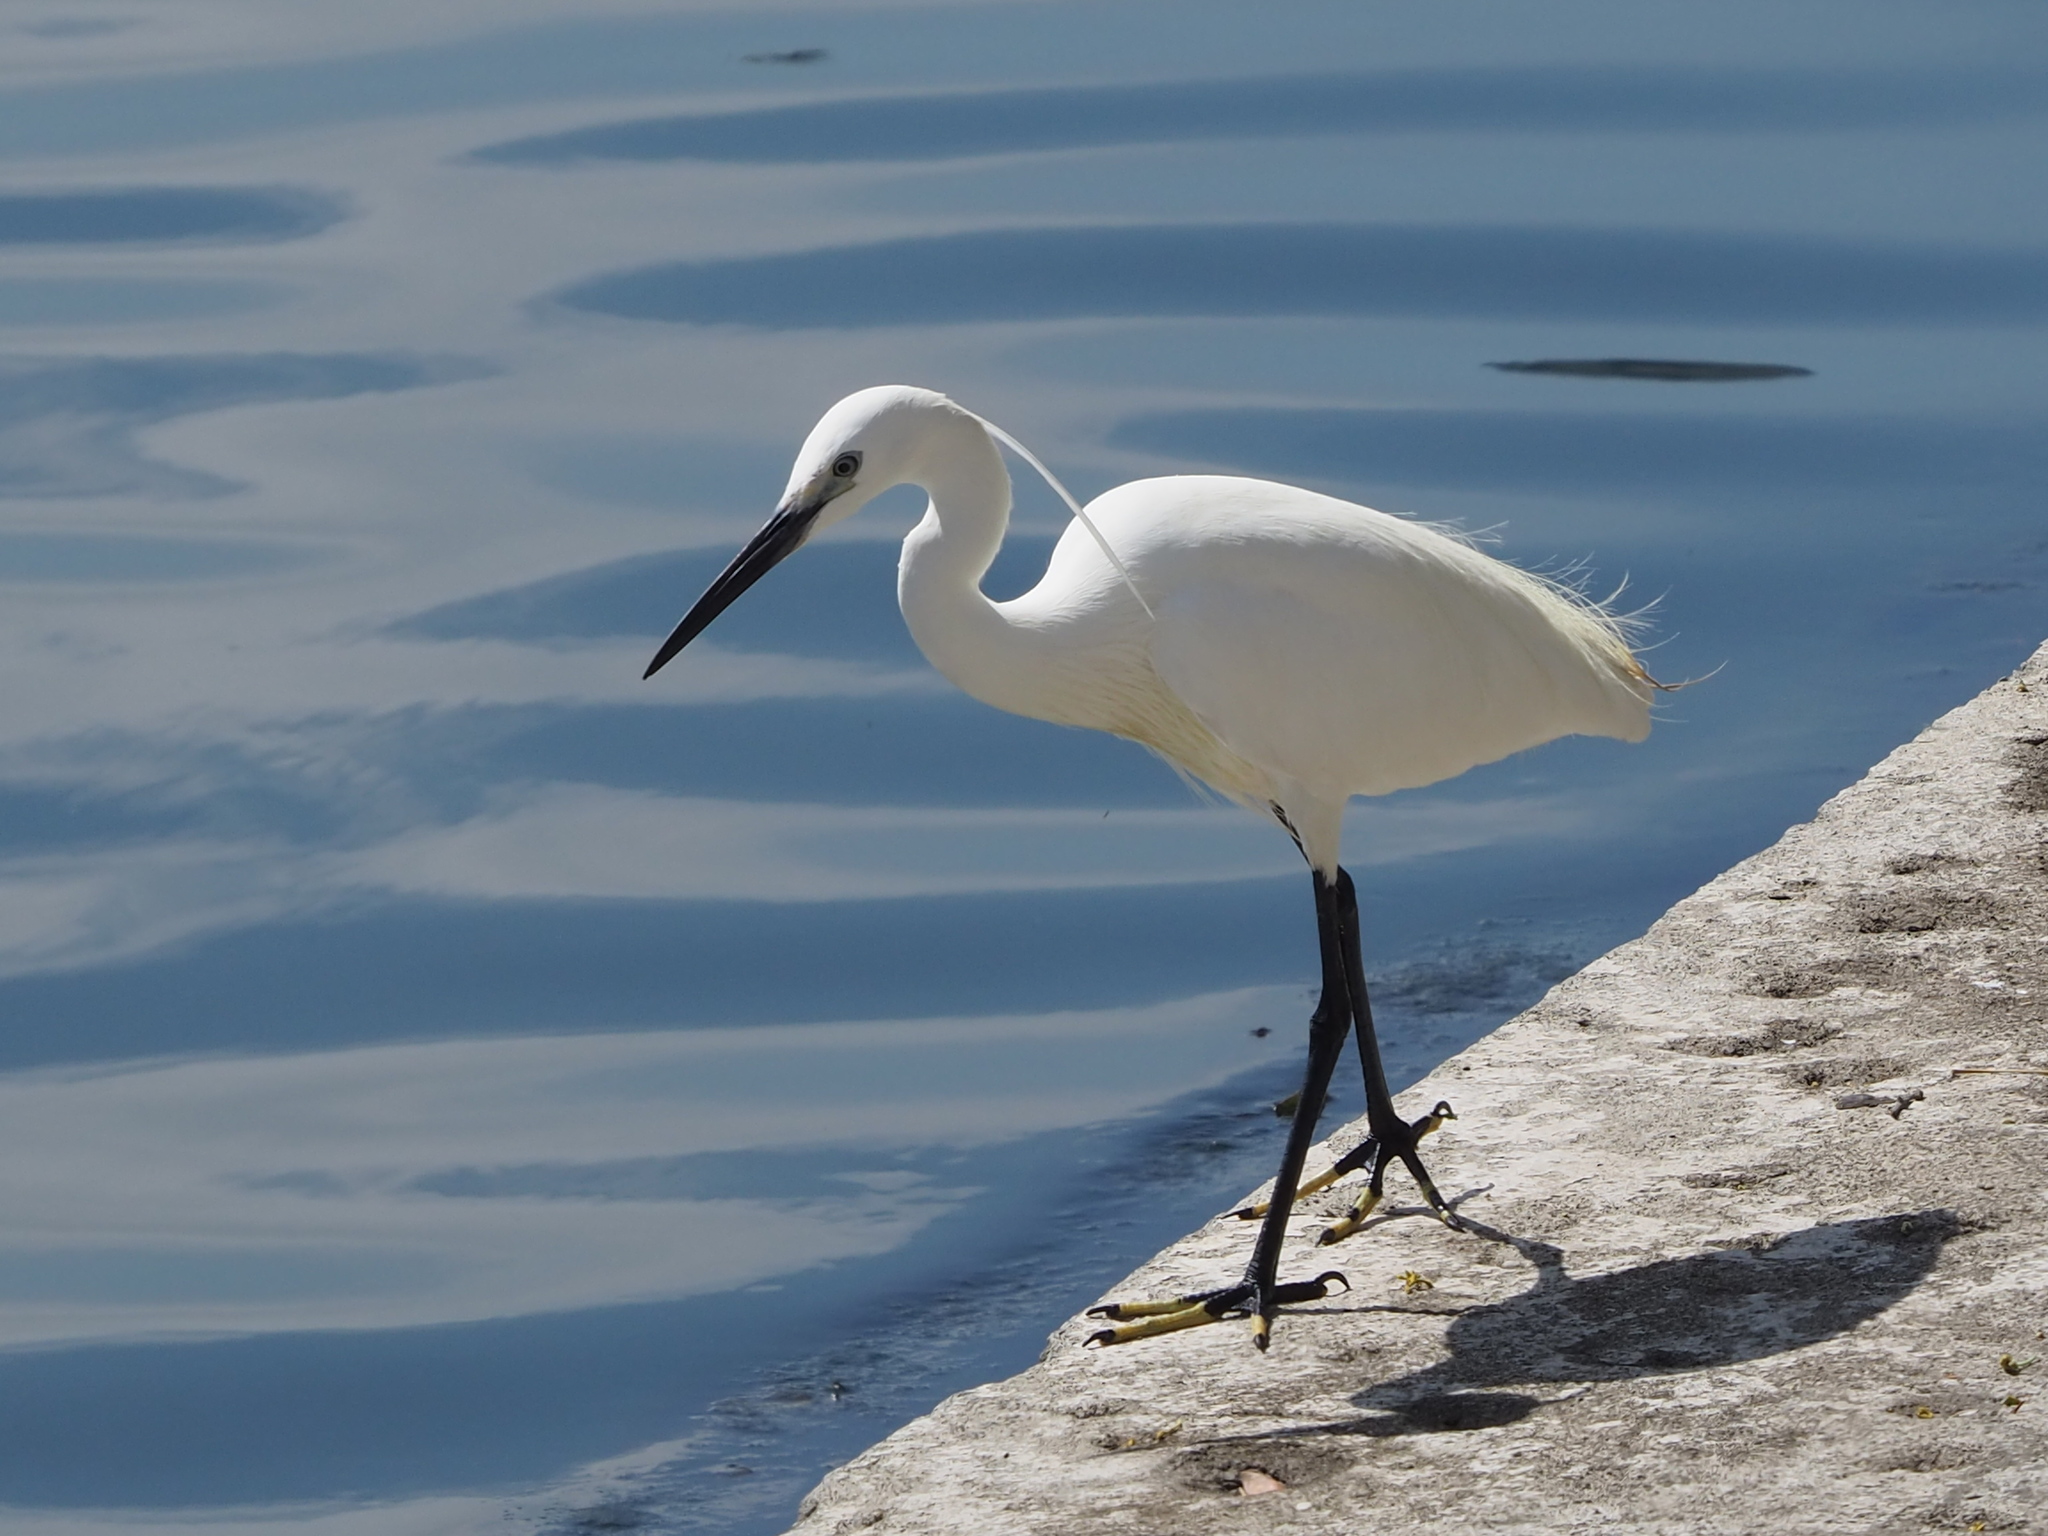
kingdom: Animalia
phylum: Chordata
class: Aves
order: Pelecaniformes
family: Ardeidae
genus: Egretta
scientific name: Egretta garzetta
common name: Little egret
